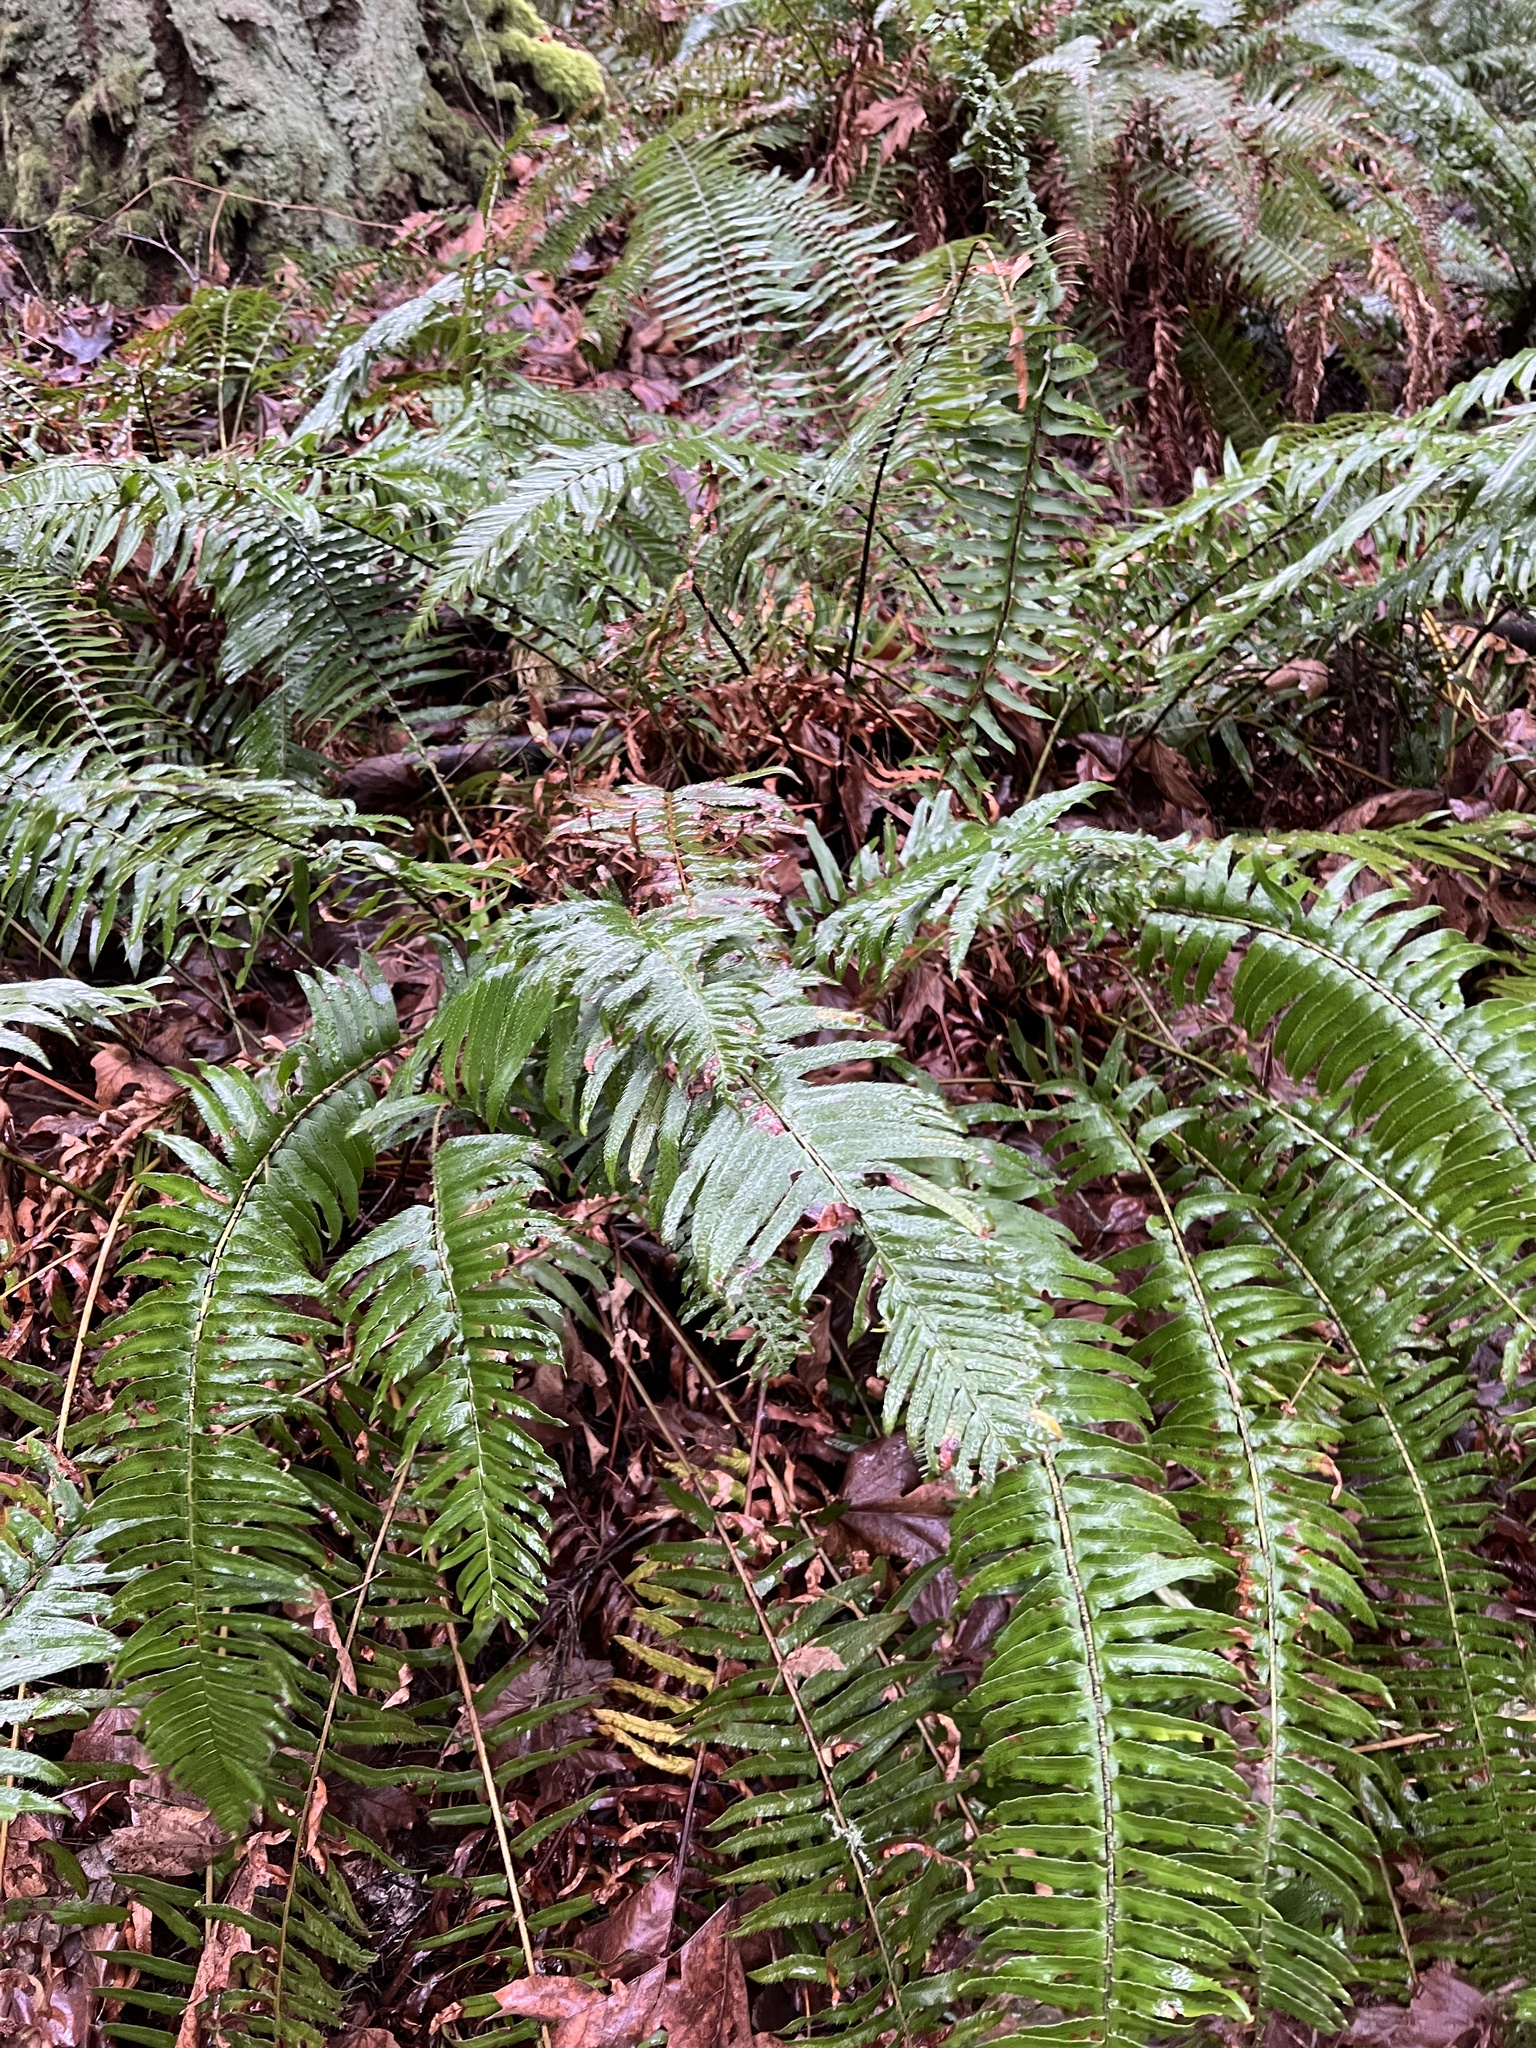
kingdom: Plantae
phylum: Tracheophyta
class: Polypodiopsida
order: Polypodiales
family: Dryopteridaceae
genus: Polystichum
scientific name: Polystichum munitum
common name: Western sword-fern
